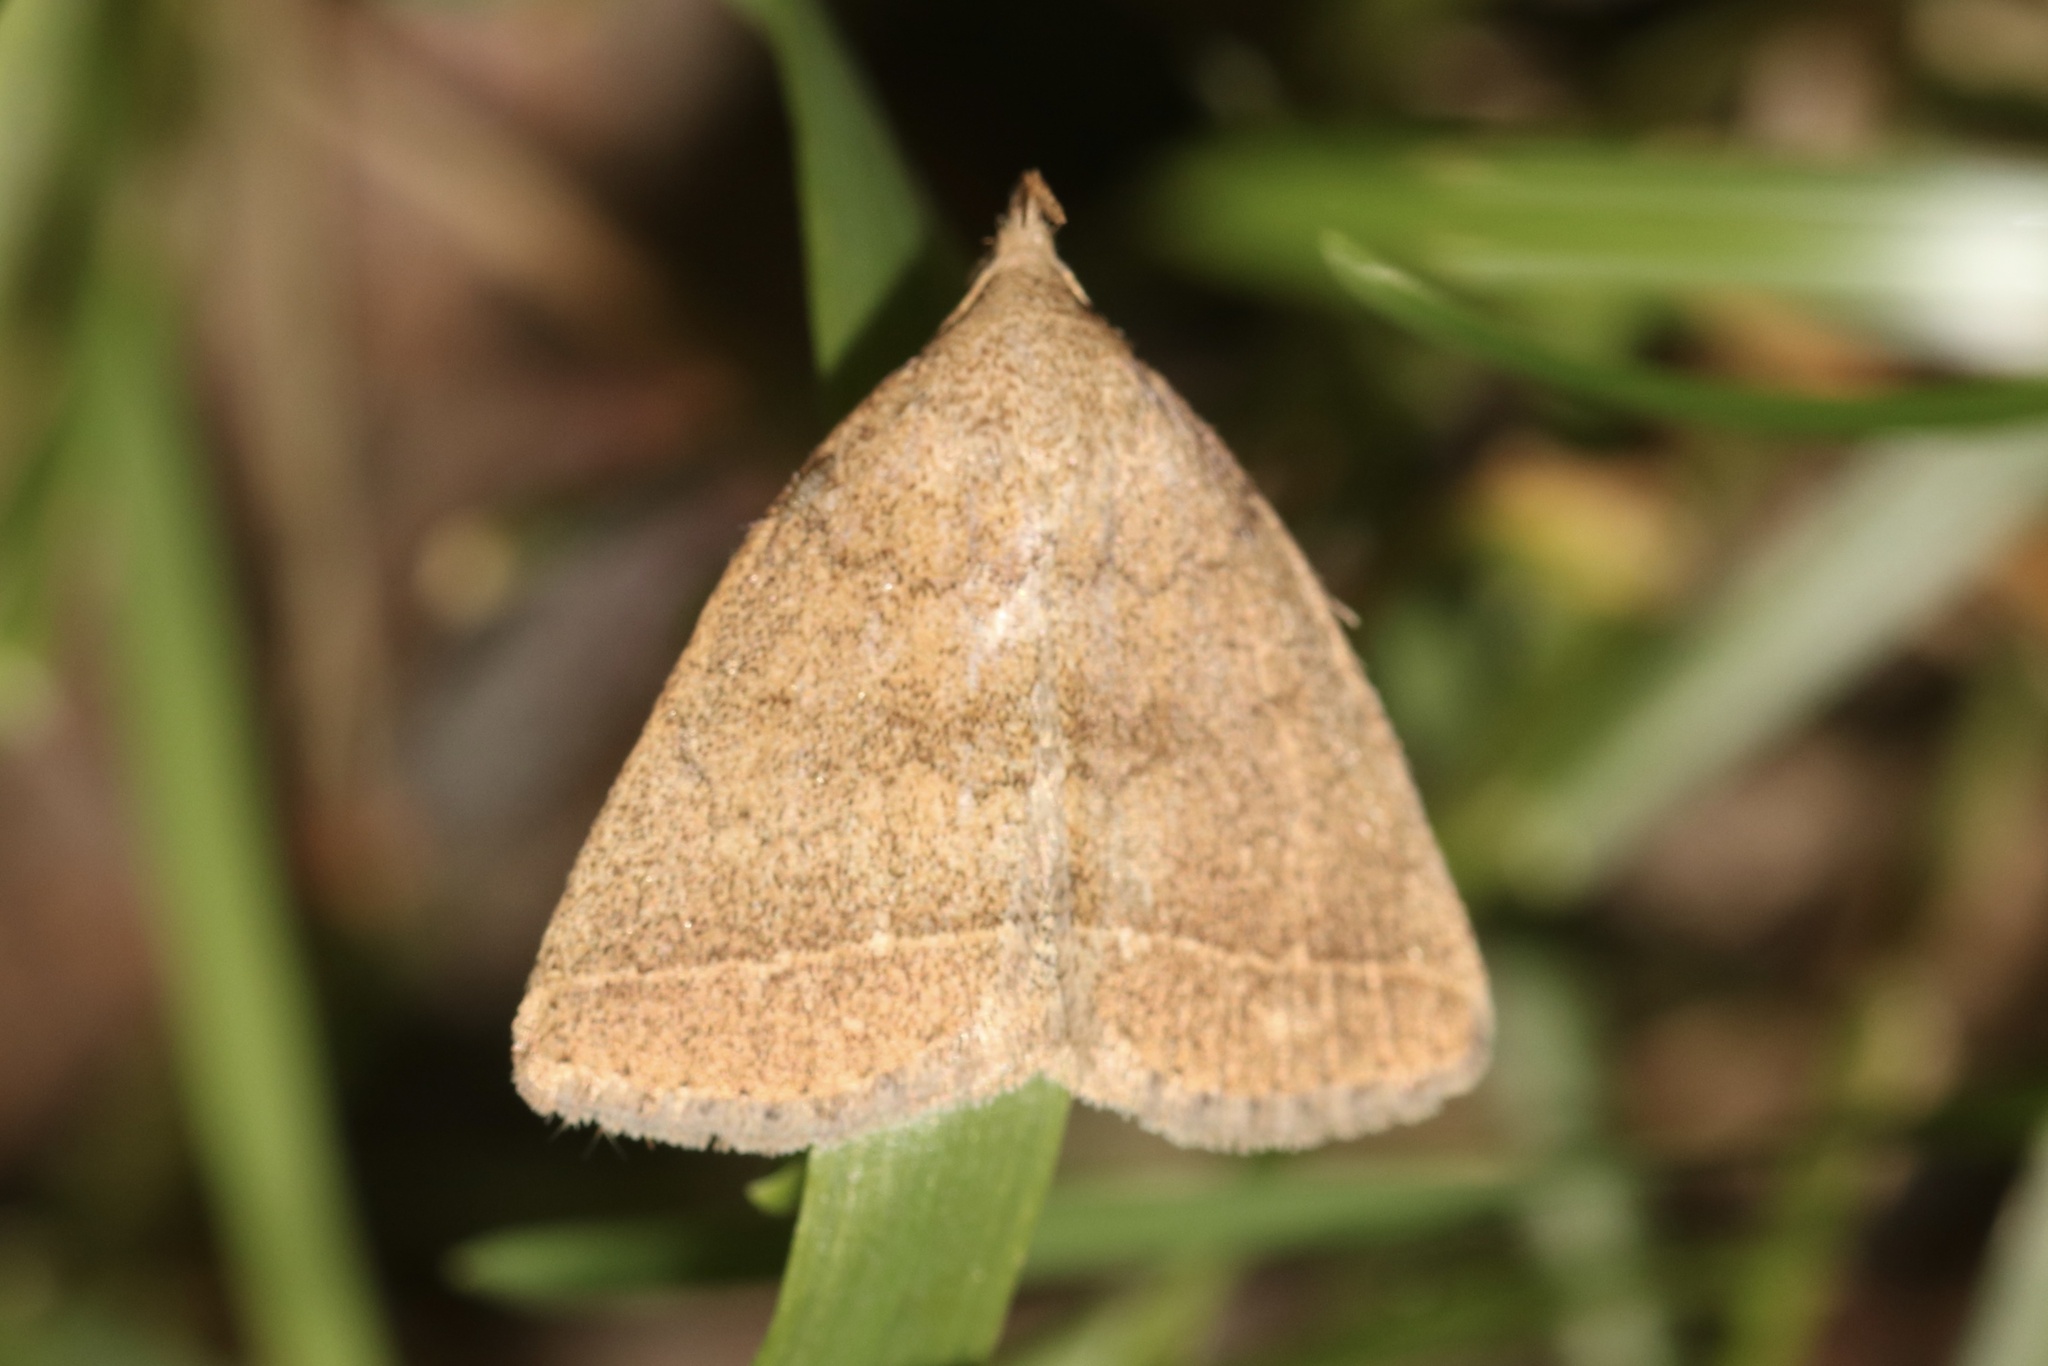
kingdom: Animalia
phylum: Arthropoda
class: Insecta
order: Lepidoptera
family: Erebidae
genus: Zanclognatha
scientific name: Zanclognatha marcidilinea
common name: Yellowish fan-foot
